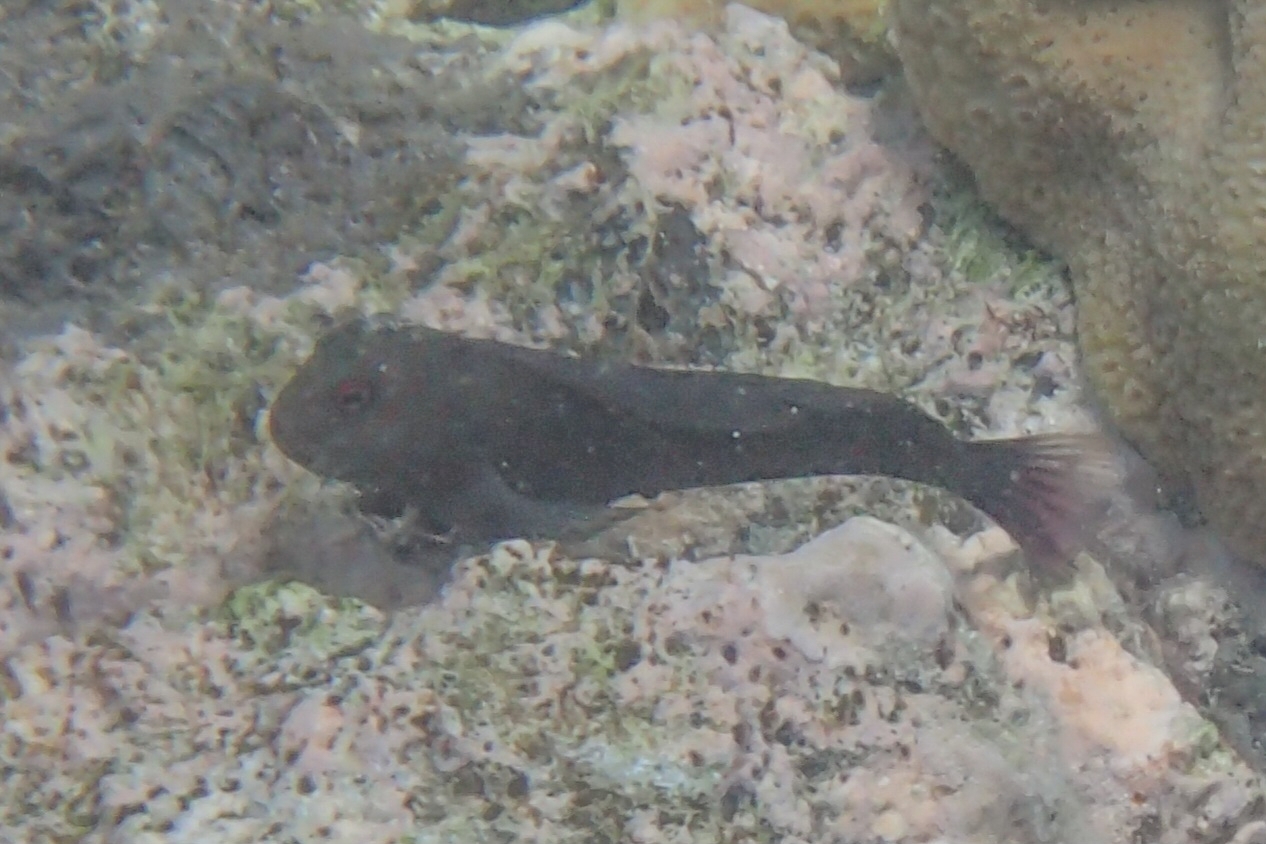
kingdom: Animalia
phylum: Chordata
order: Perciformes
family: Blenniidae
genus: Cirripectes
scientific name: Cirripectes castaneus
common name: Chestnut blenny
